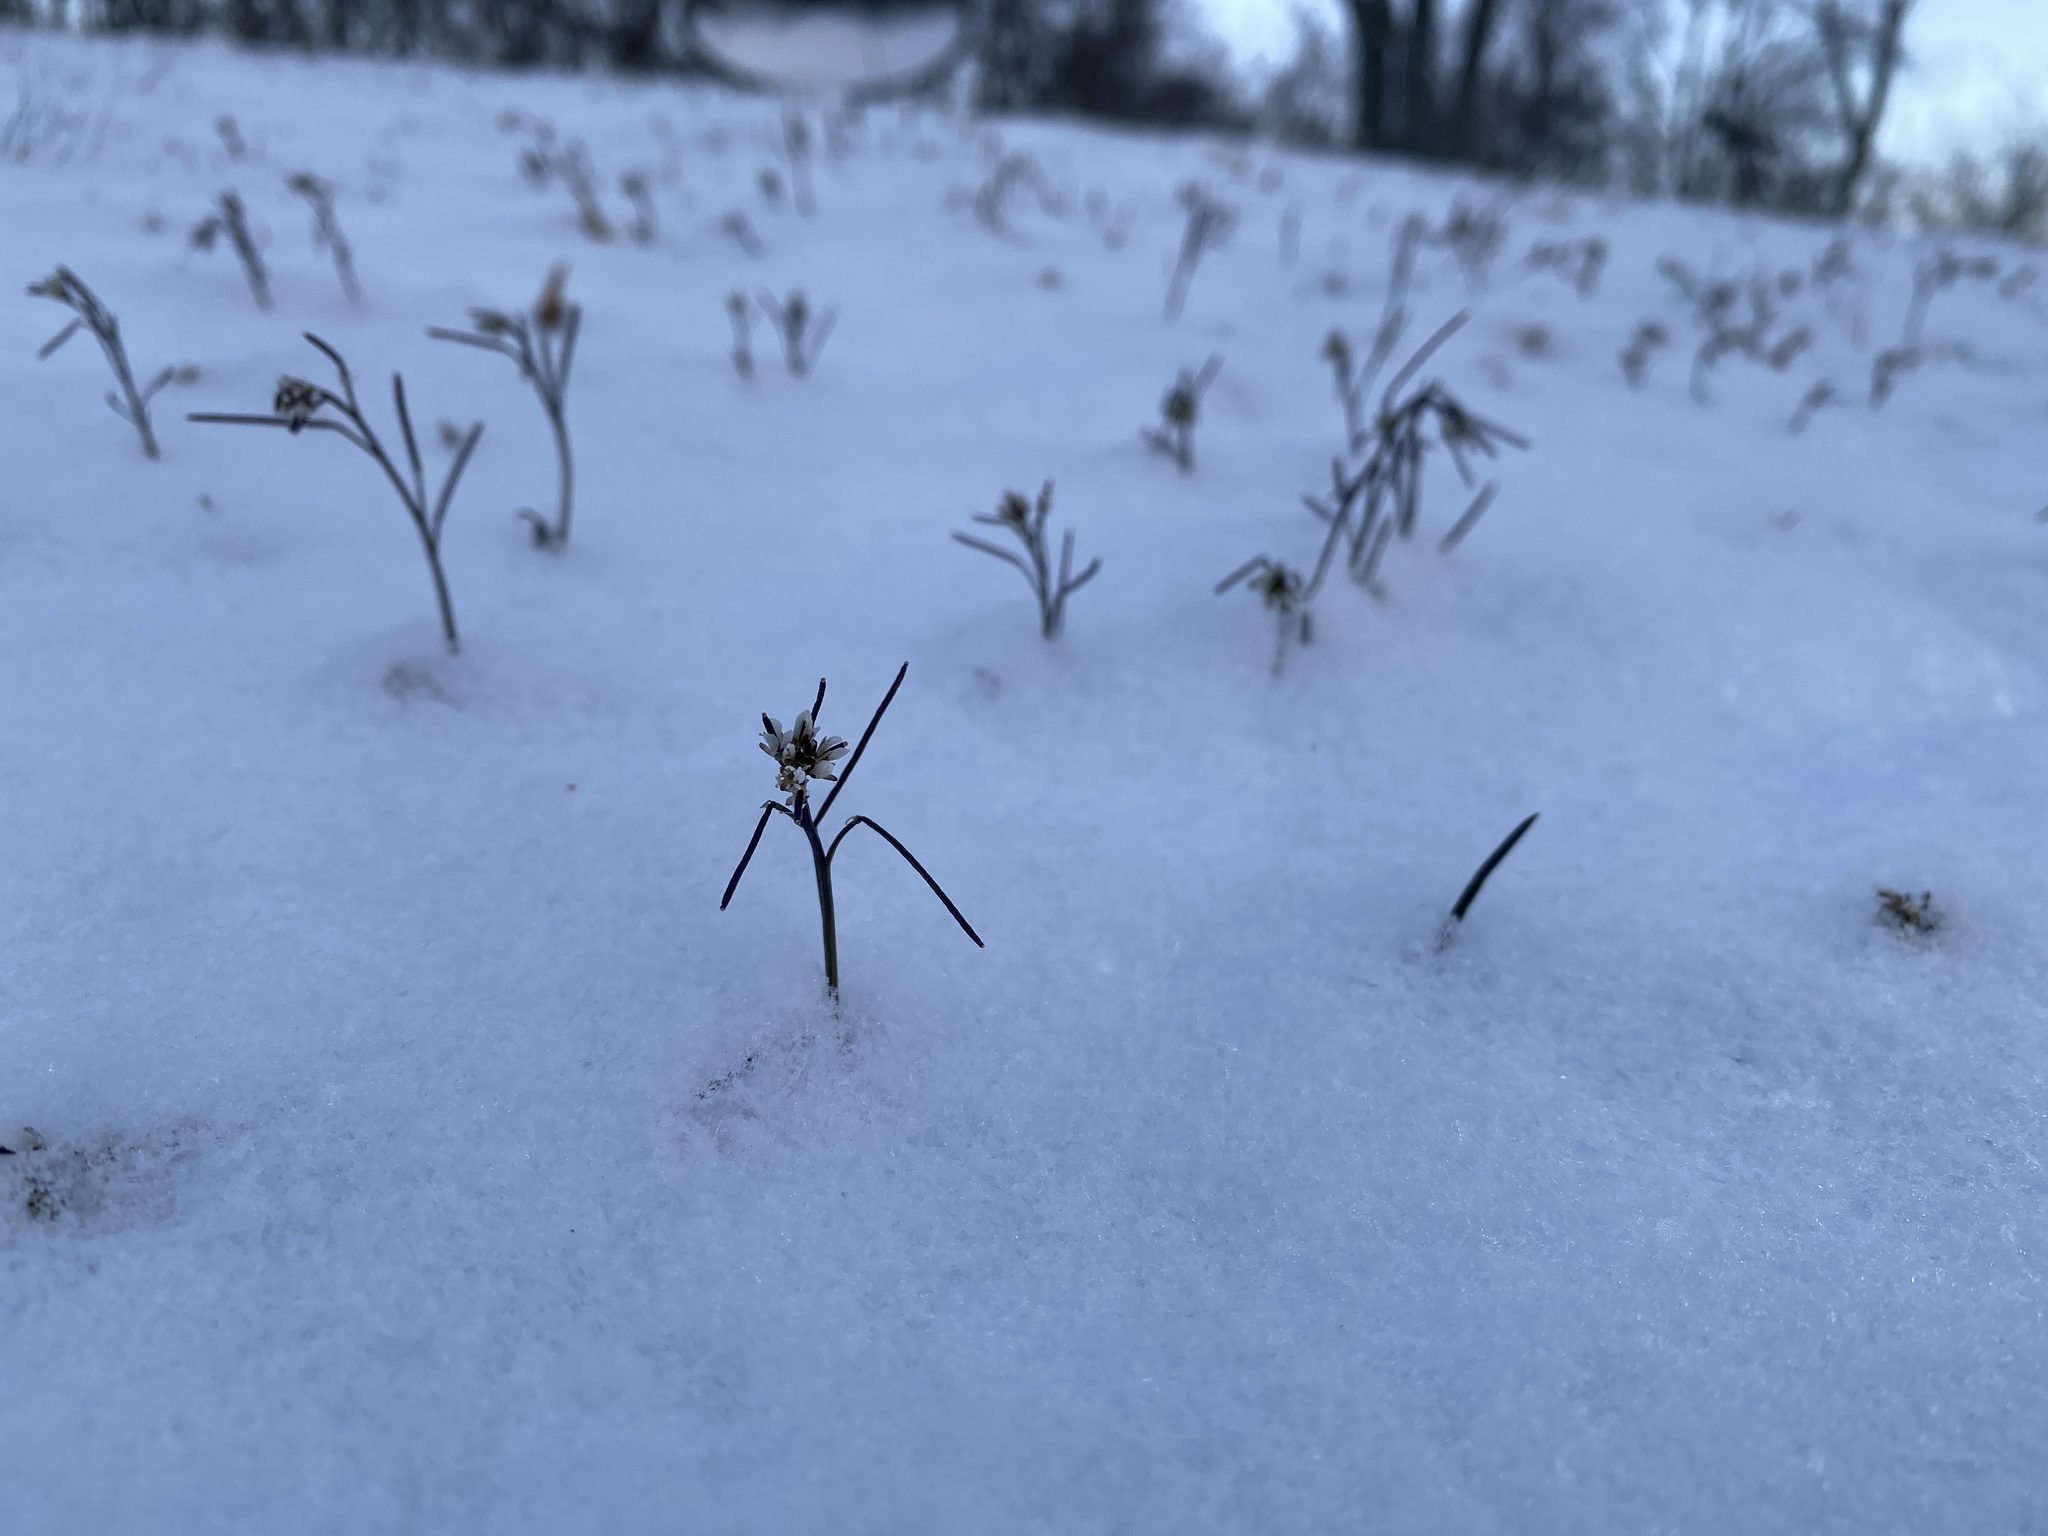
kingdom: Plantae
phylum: Tracheophyta
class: Magnoliopsida
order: Brassicales
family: Brassicaceae
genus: Cardamine
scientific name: Cardamine hirsuta
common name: Hairy bittercress
